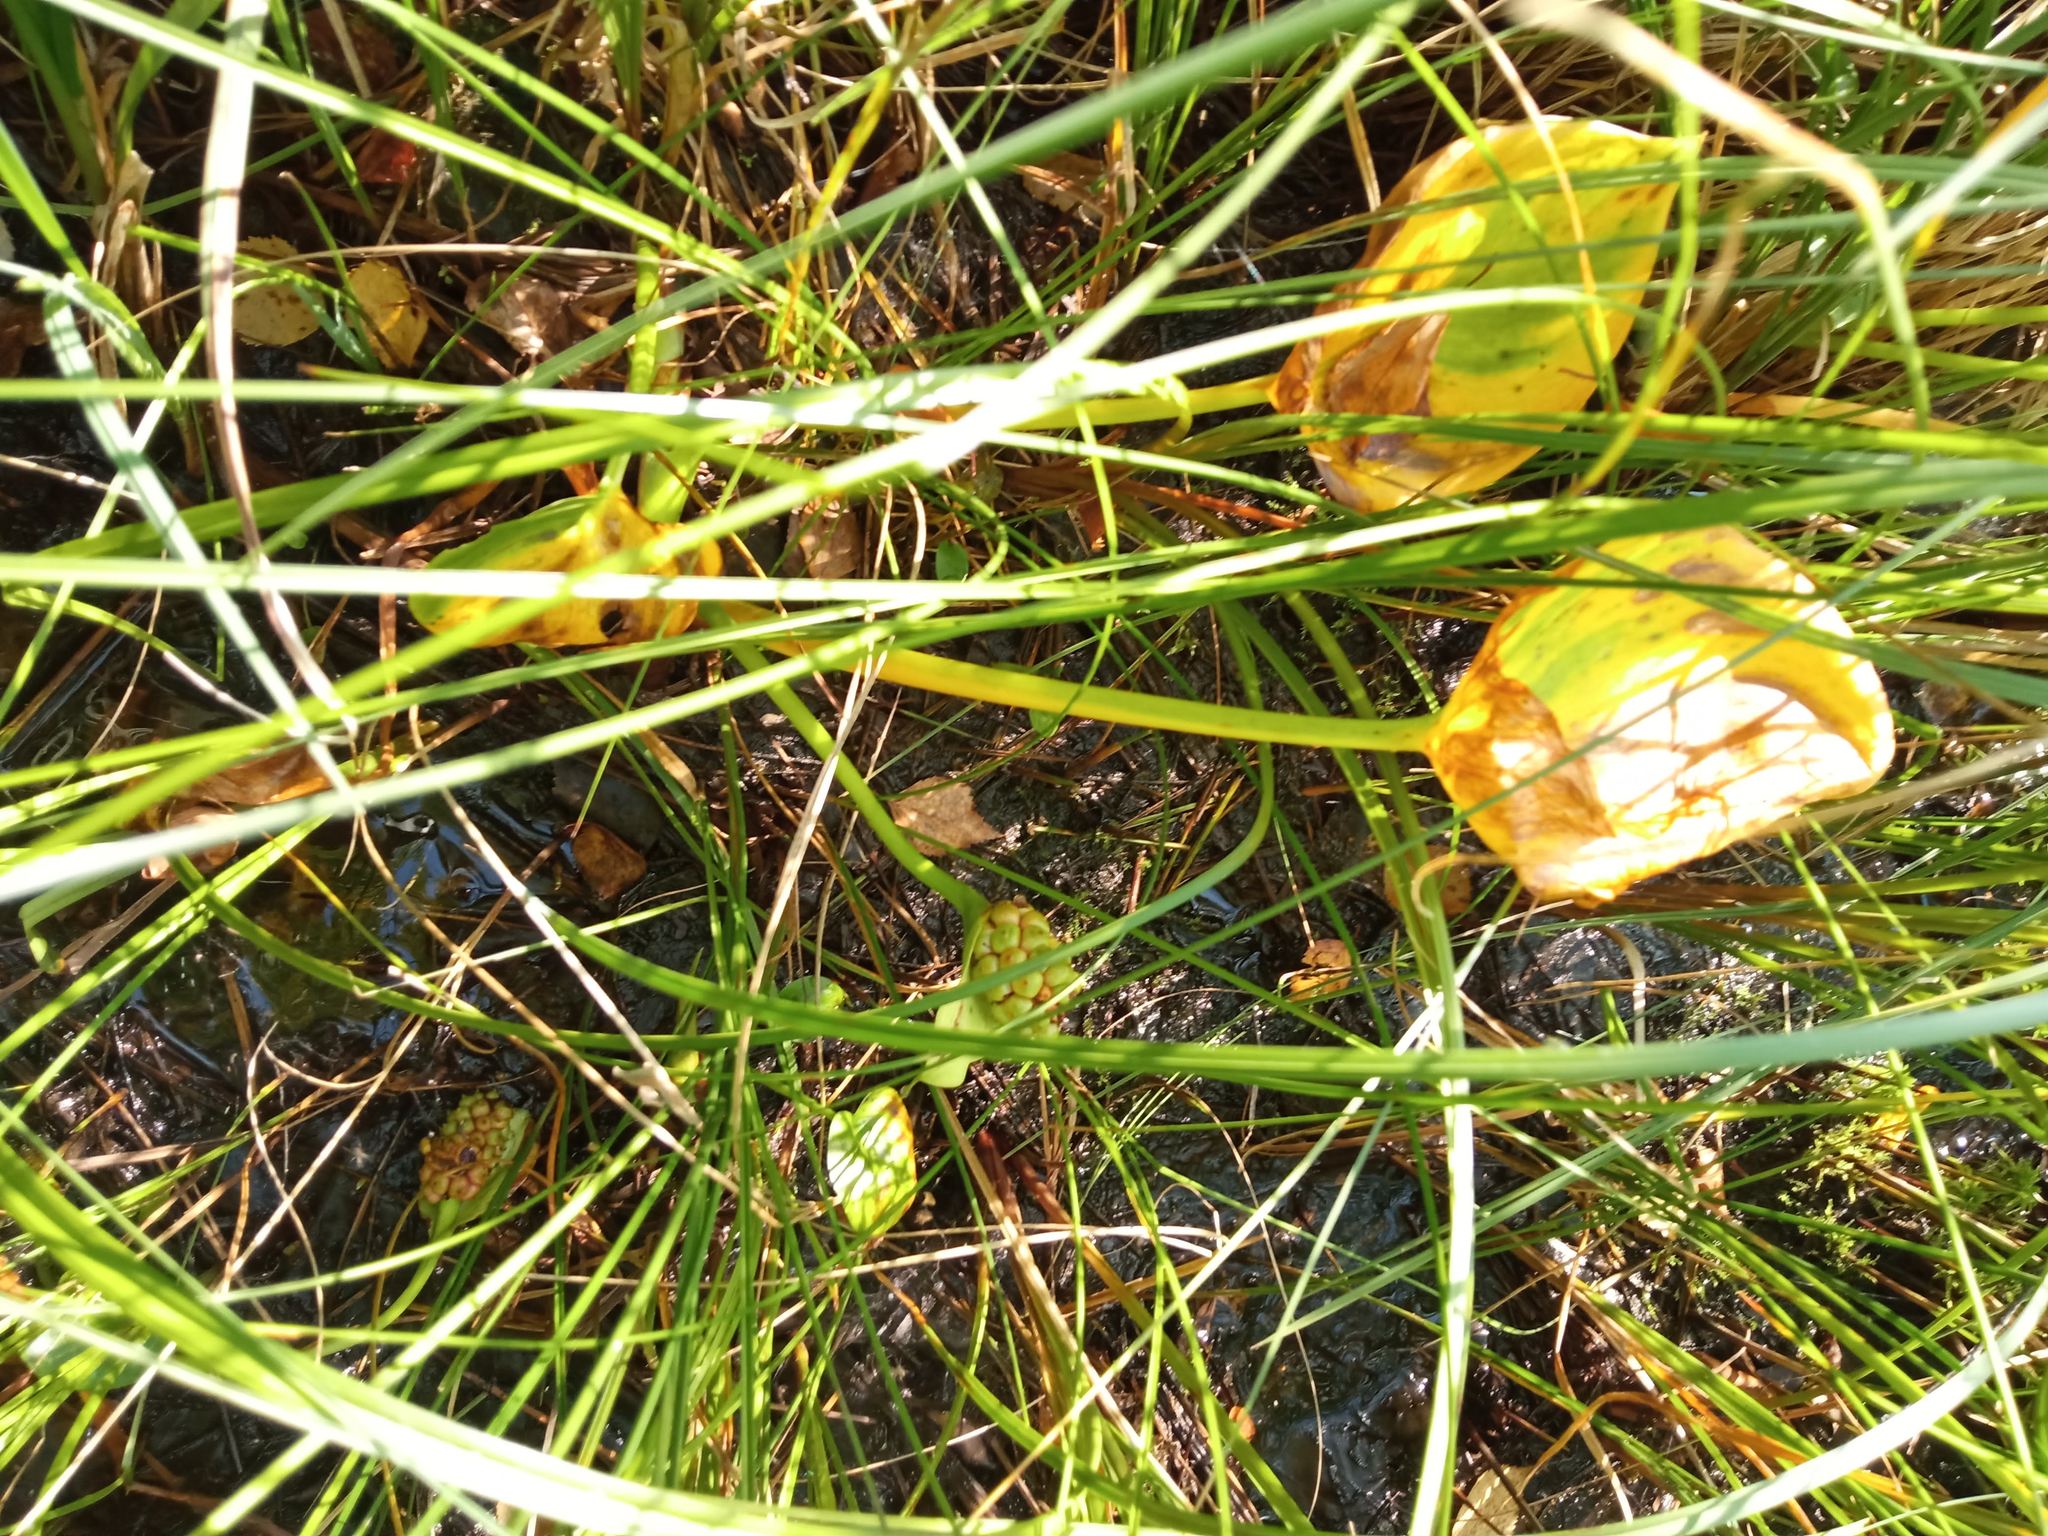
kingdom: Plantae
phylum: Tracheophyta
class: Liliopsida
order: Alismatales
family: Araceae
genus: Calla
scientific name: Calla palustris
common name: Bog arum
